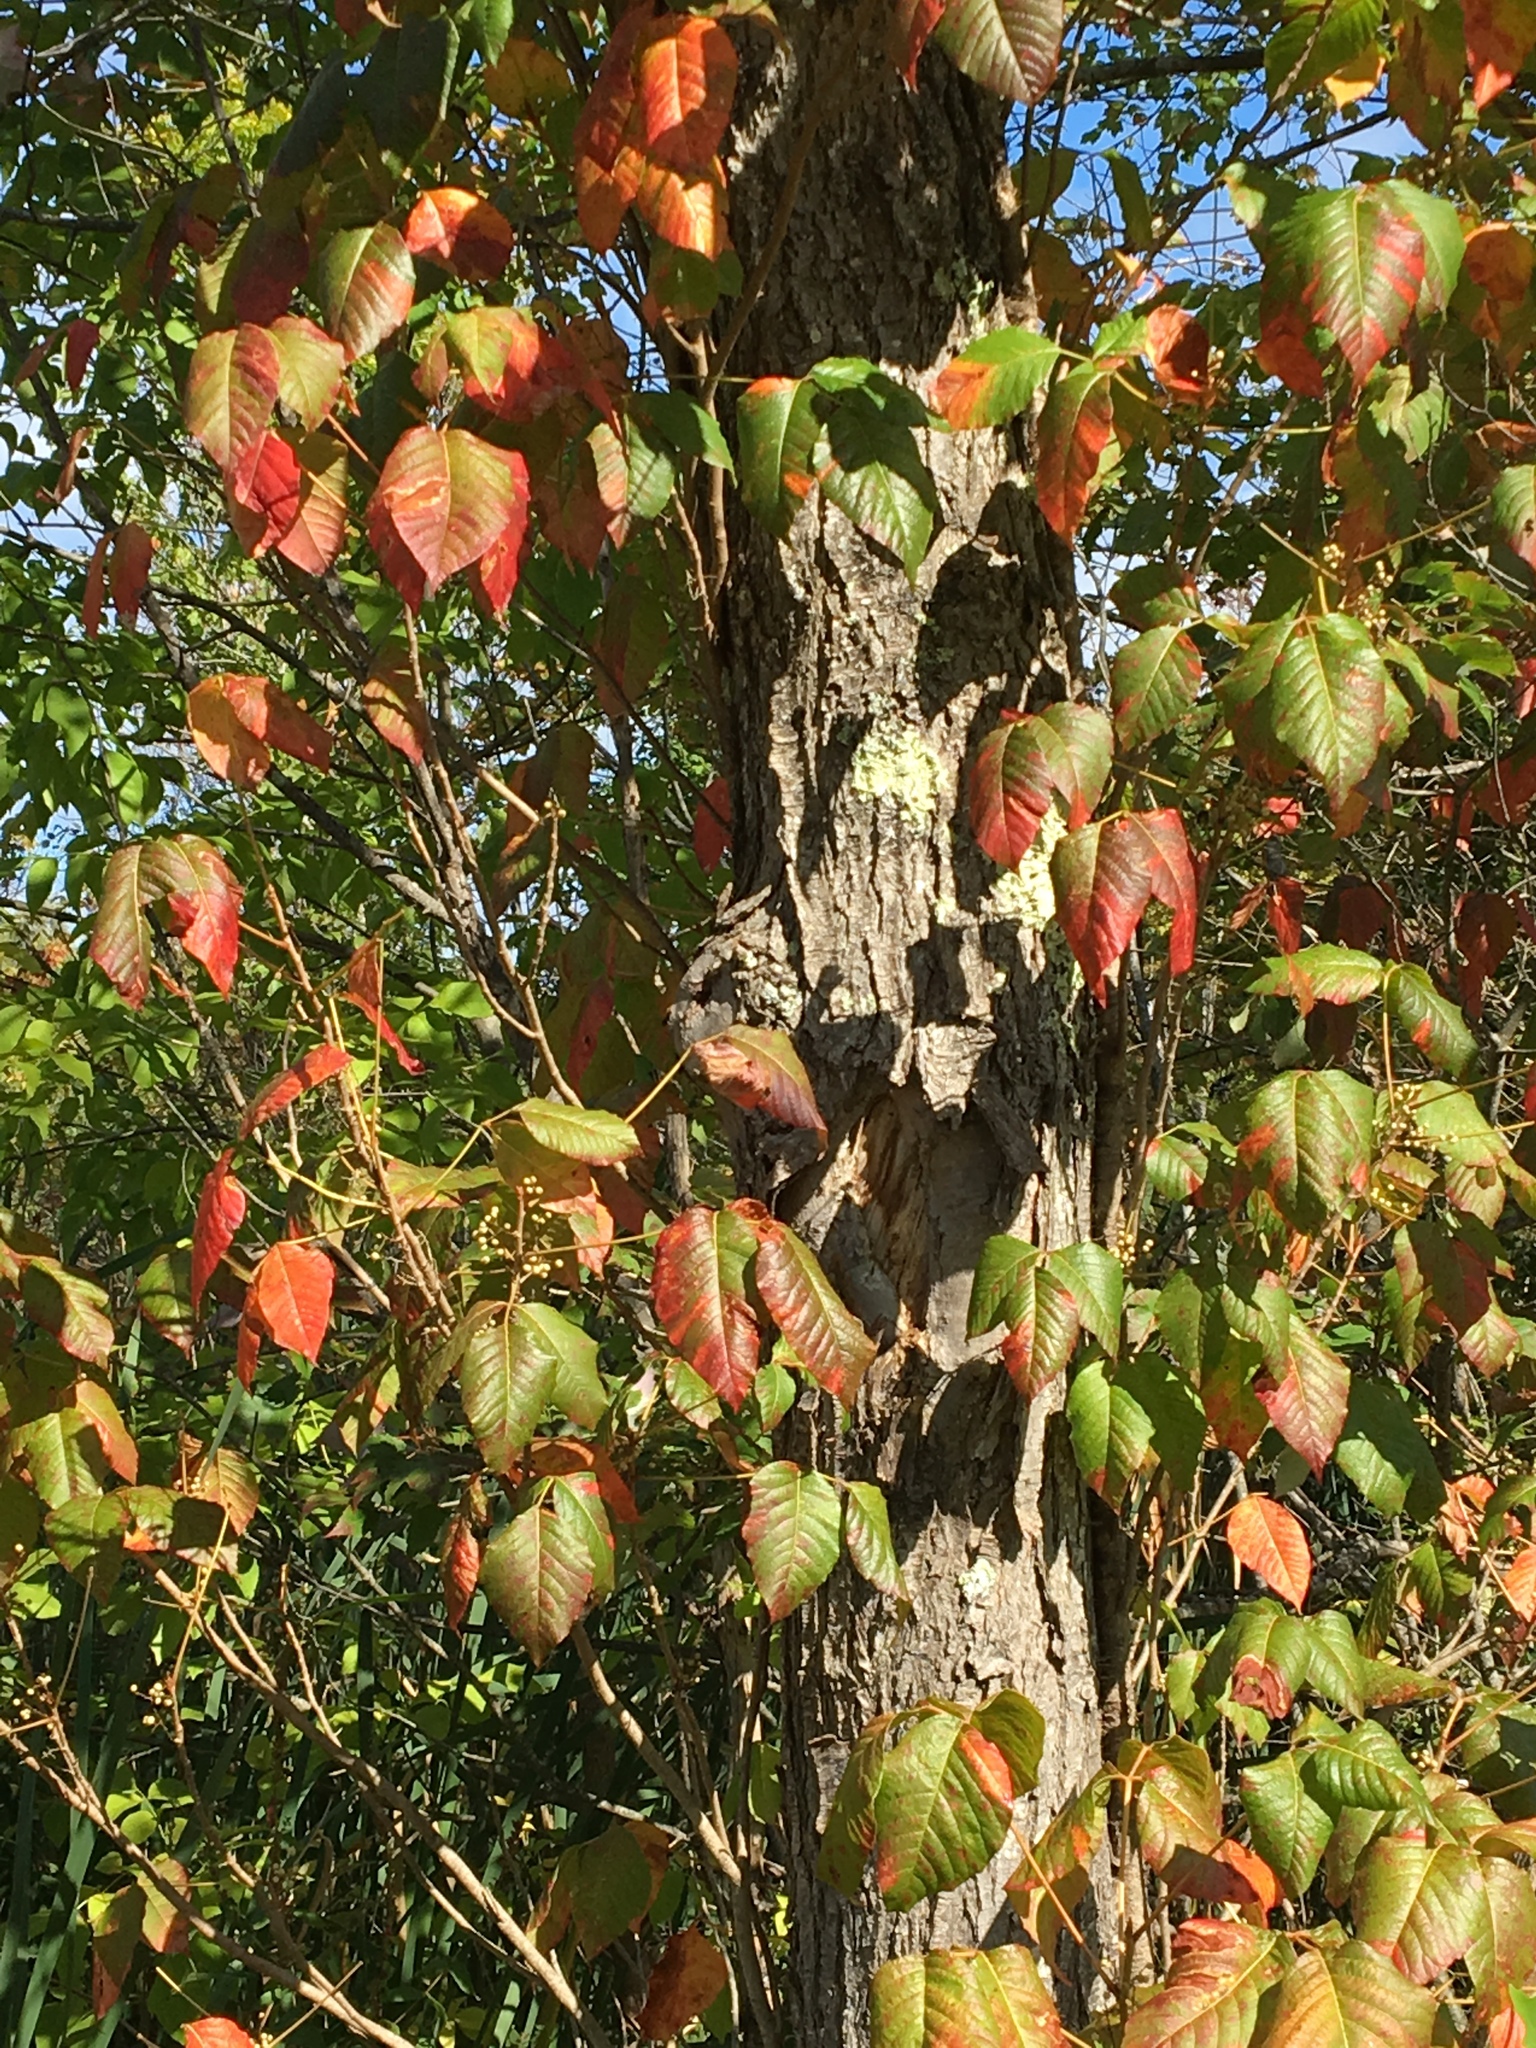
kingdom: Plantae
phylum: Tracheophyta
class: Magnoliopsida
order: Sapindales
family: Anacardiaceae
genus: Toxicodendron
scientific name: Toxicodendron radicans
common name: Poison ivy
